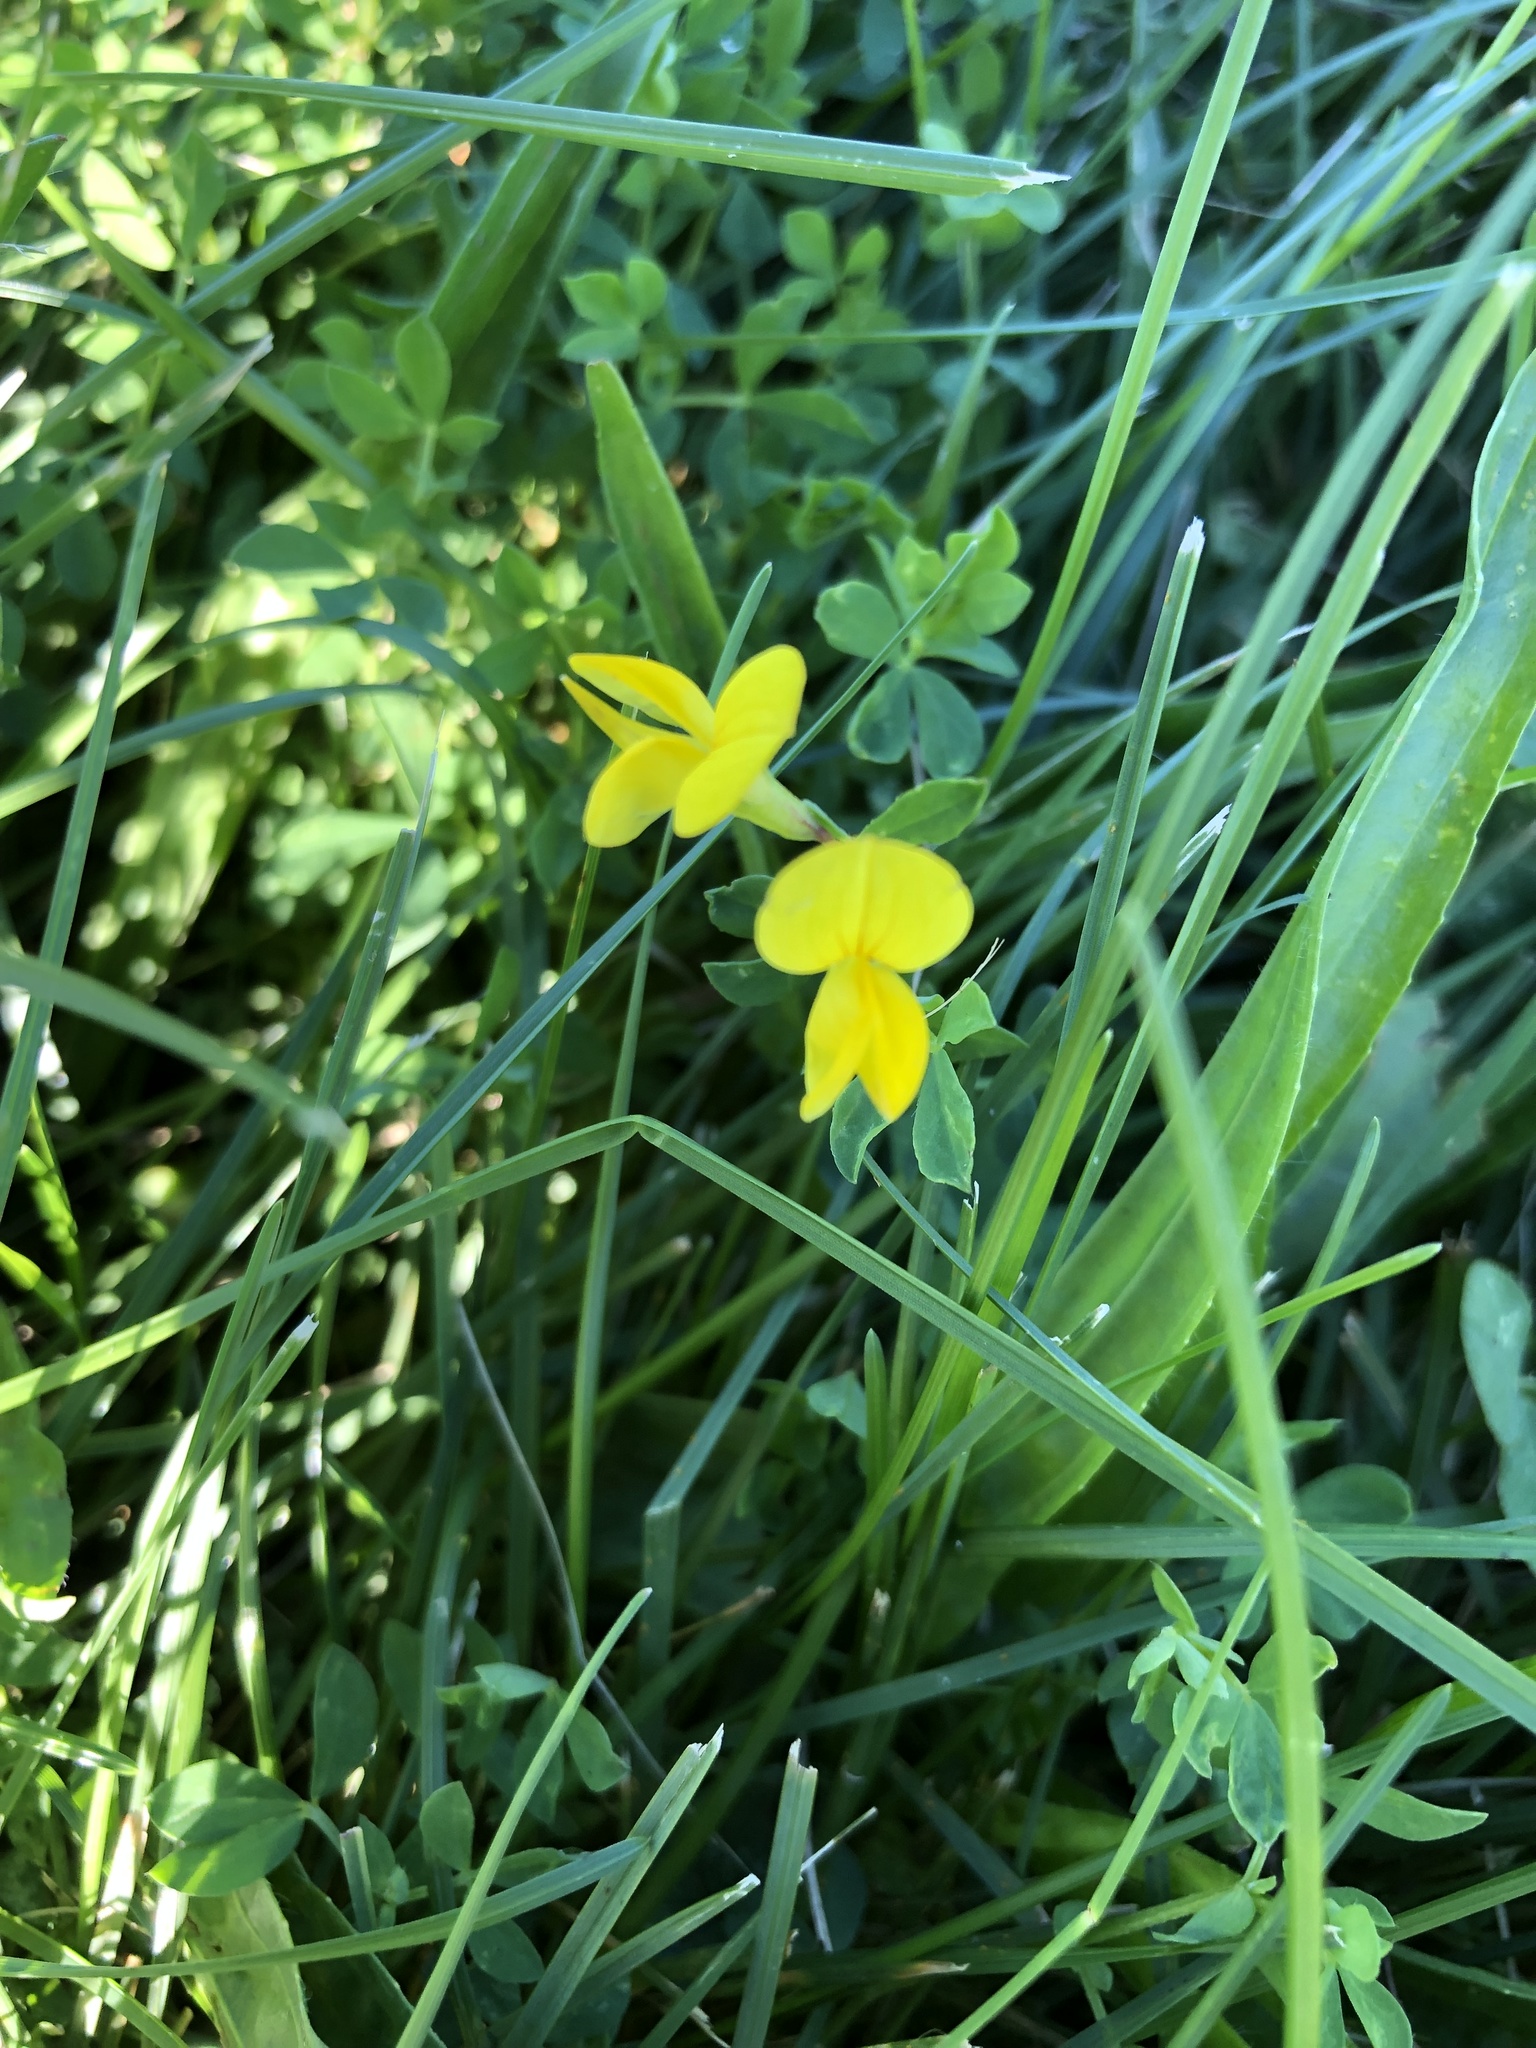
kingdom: Plantae
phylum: Tracheophyta
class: Magnoliopsida
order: Fabales
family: Fabaceae
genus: Lotus
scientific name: Lotus corniculatus
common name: Common bird's-foot-trefoil
